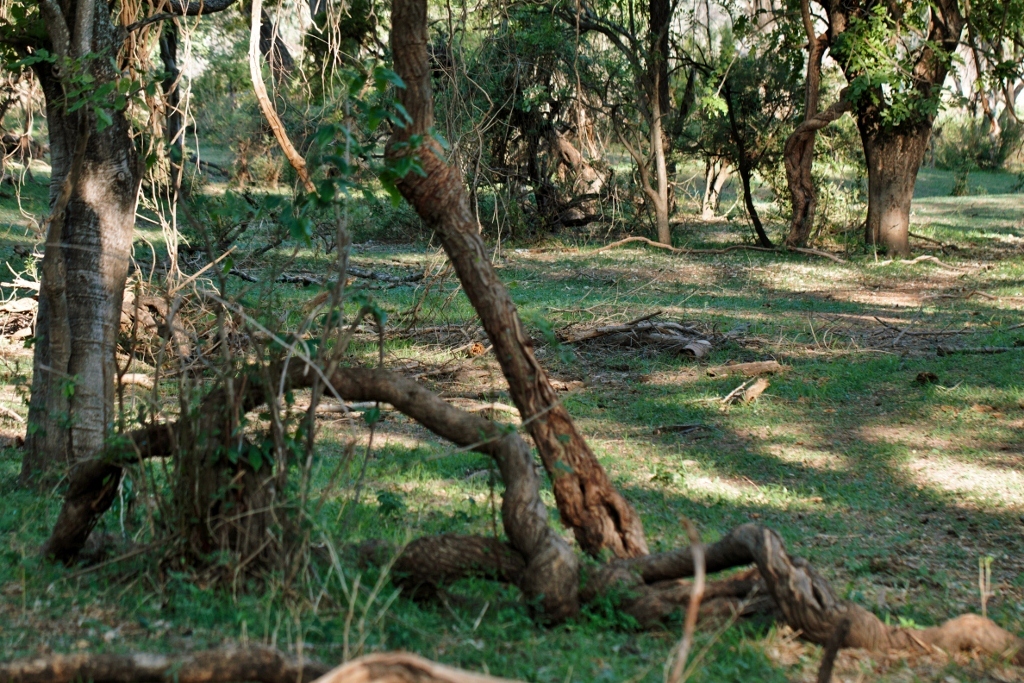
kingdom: Plantae
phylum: Tracheophyta
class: Magnoliopsida
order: Myrtales
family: Combretaceae
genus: Combretum
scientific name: Combretum microphyllum
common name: Burningbush
